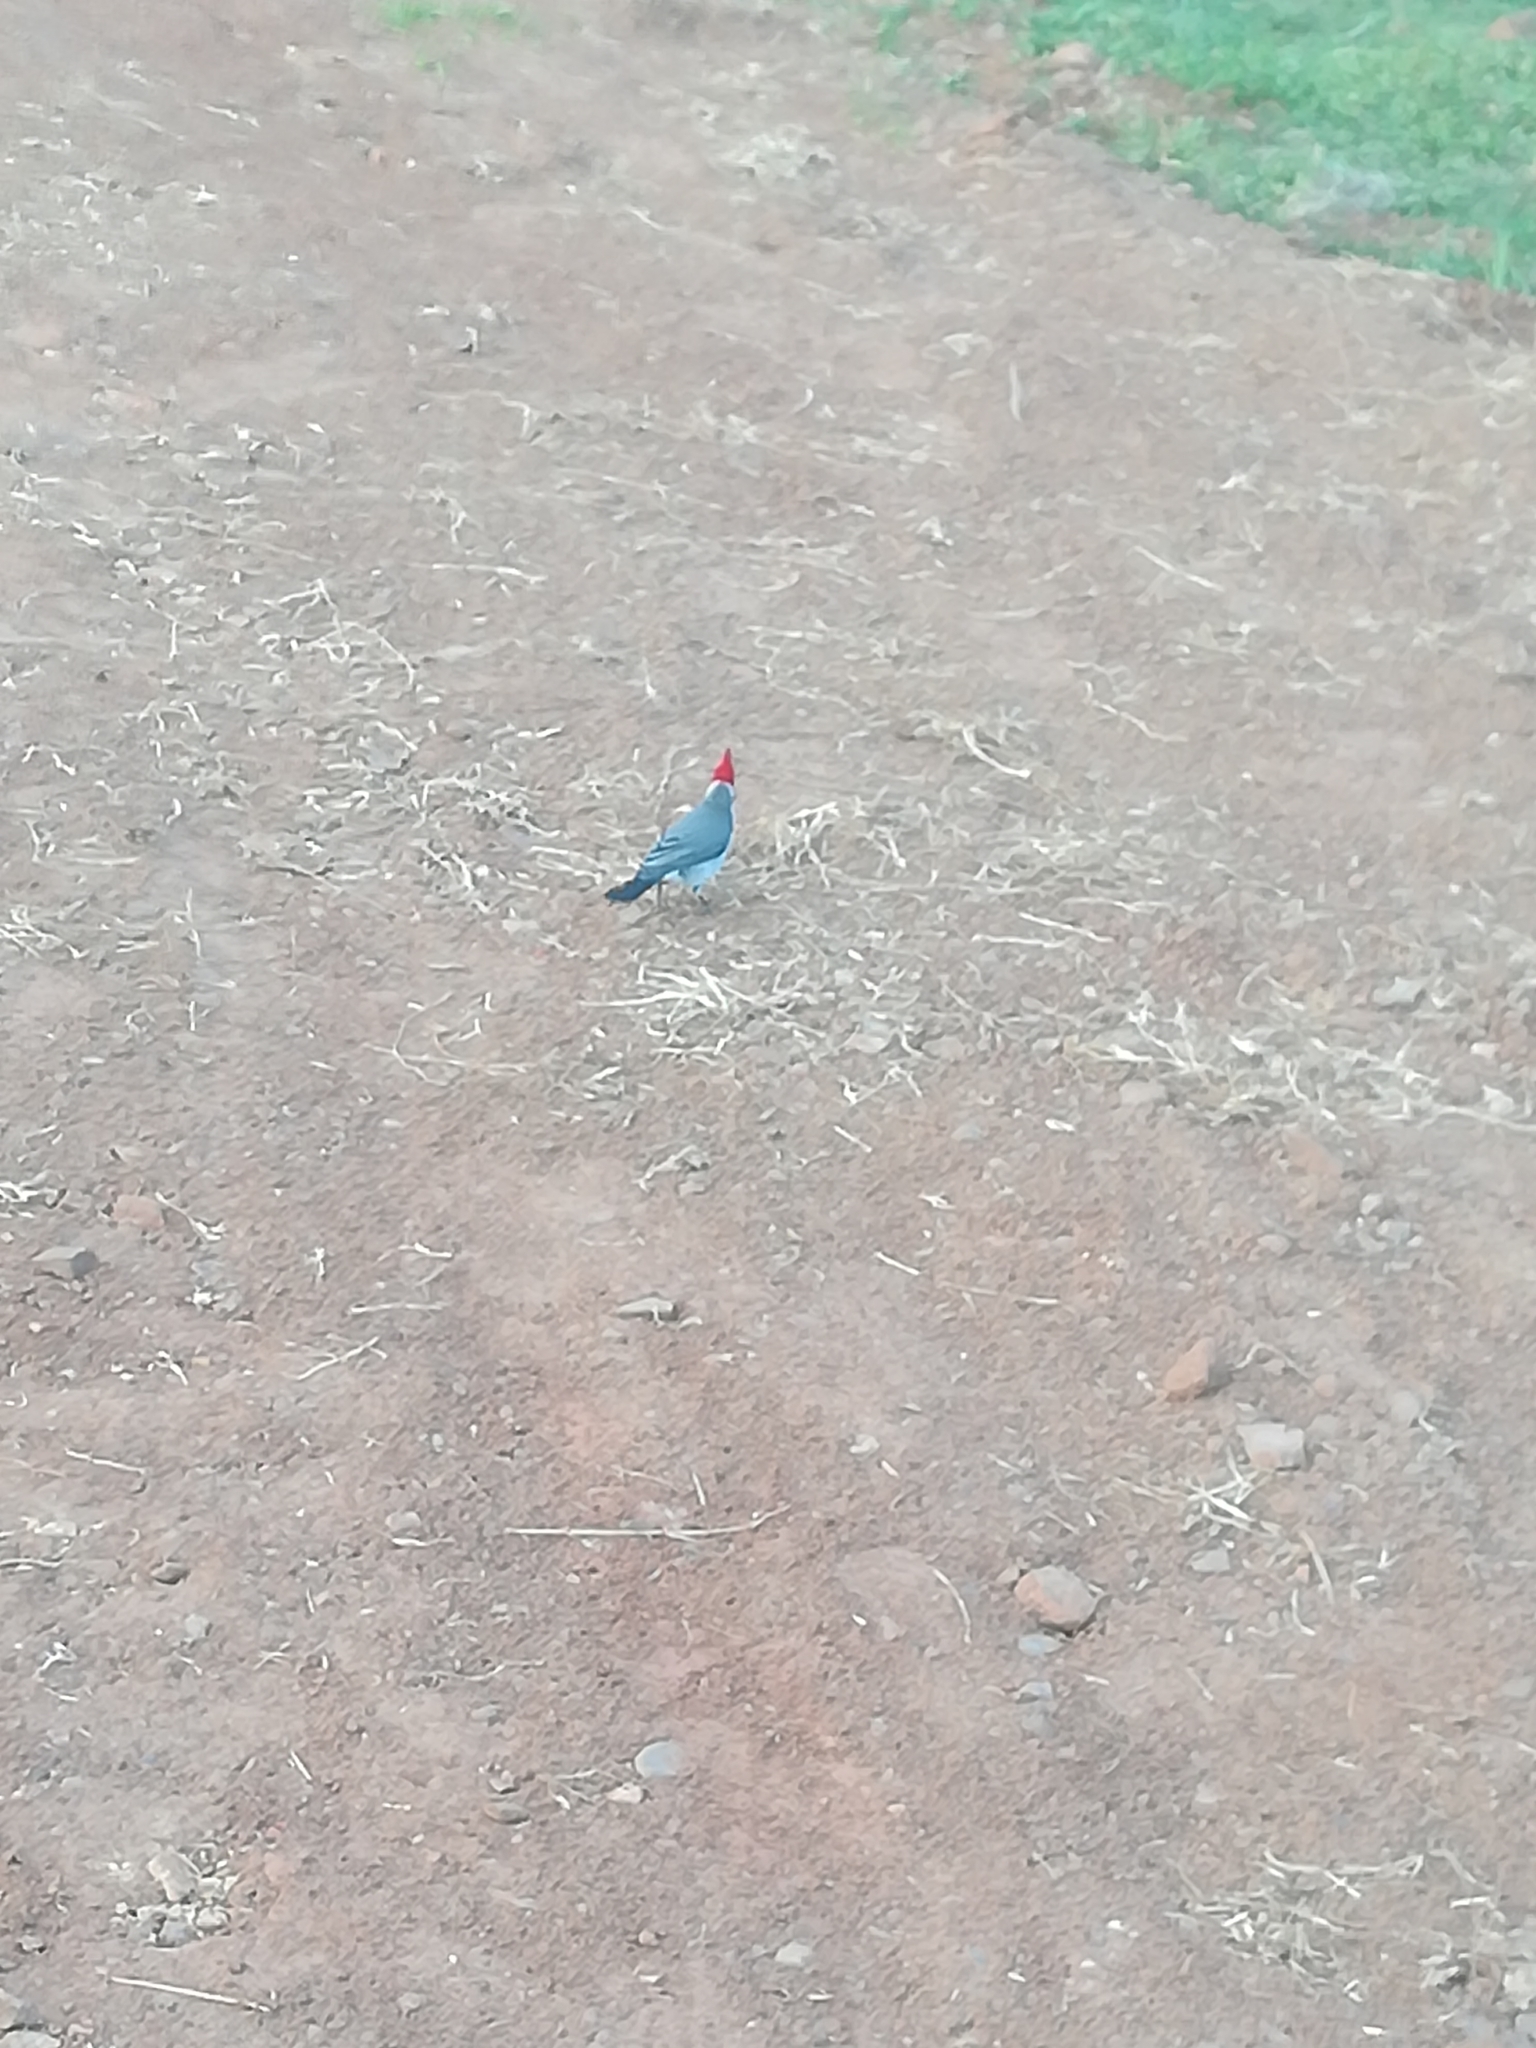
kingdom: Animalia
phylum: Chordata
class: Aves
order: Passeriformes
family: Thraupidae
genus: Paroaria
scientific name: Paroaria coronata
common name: Red-crested cardinal
